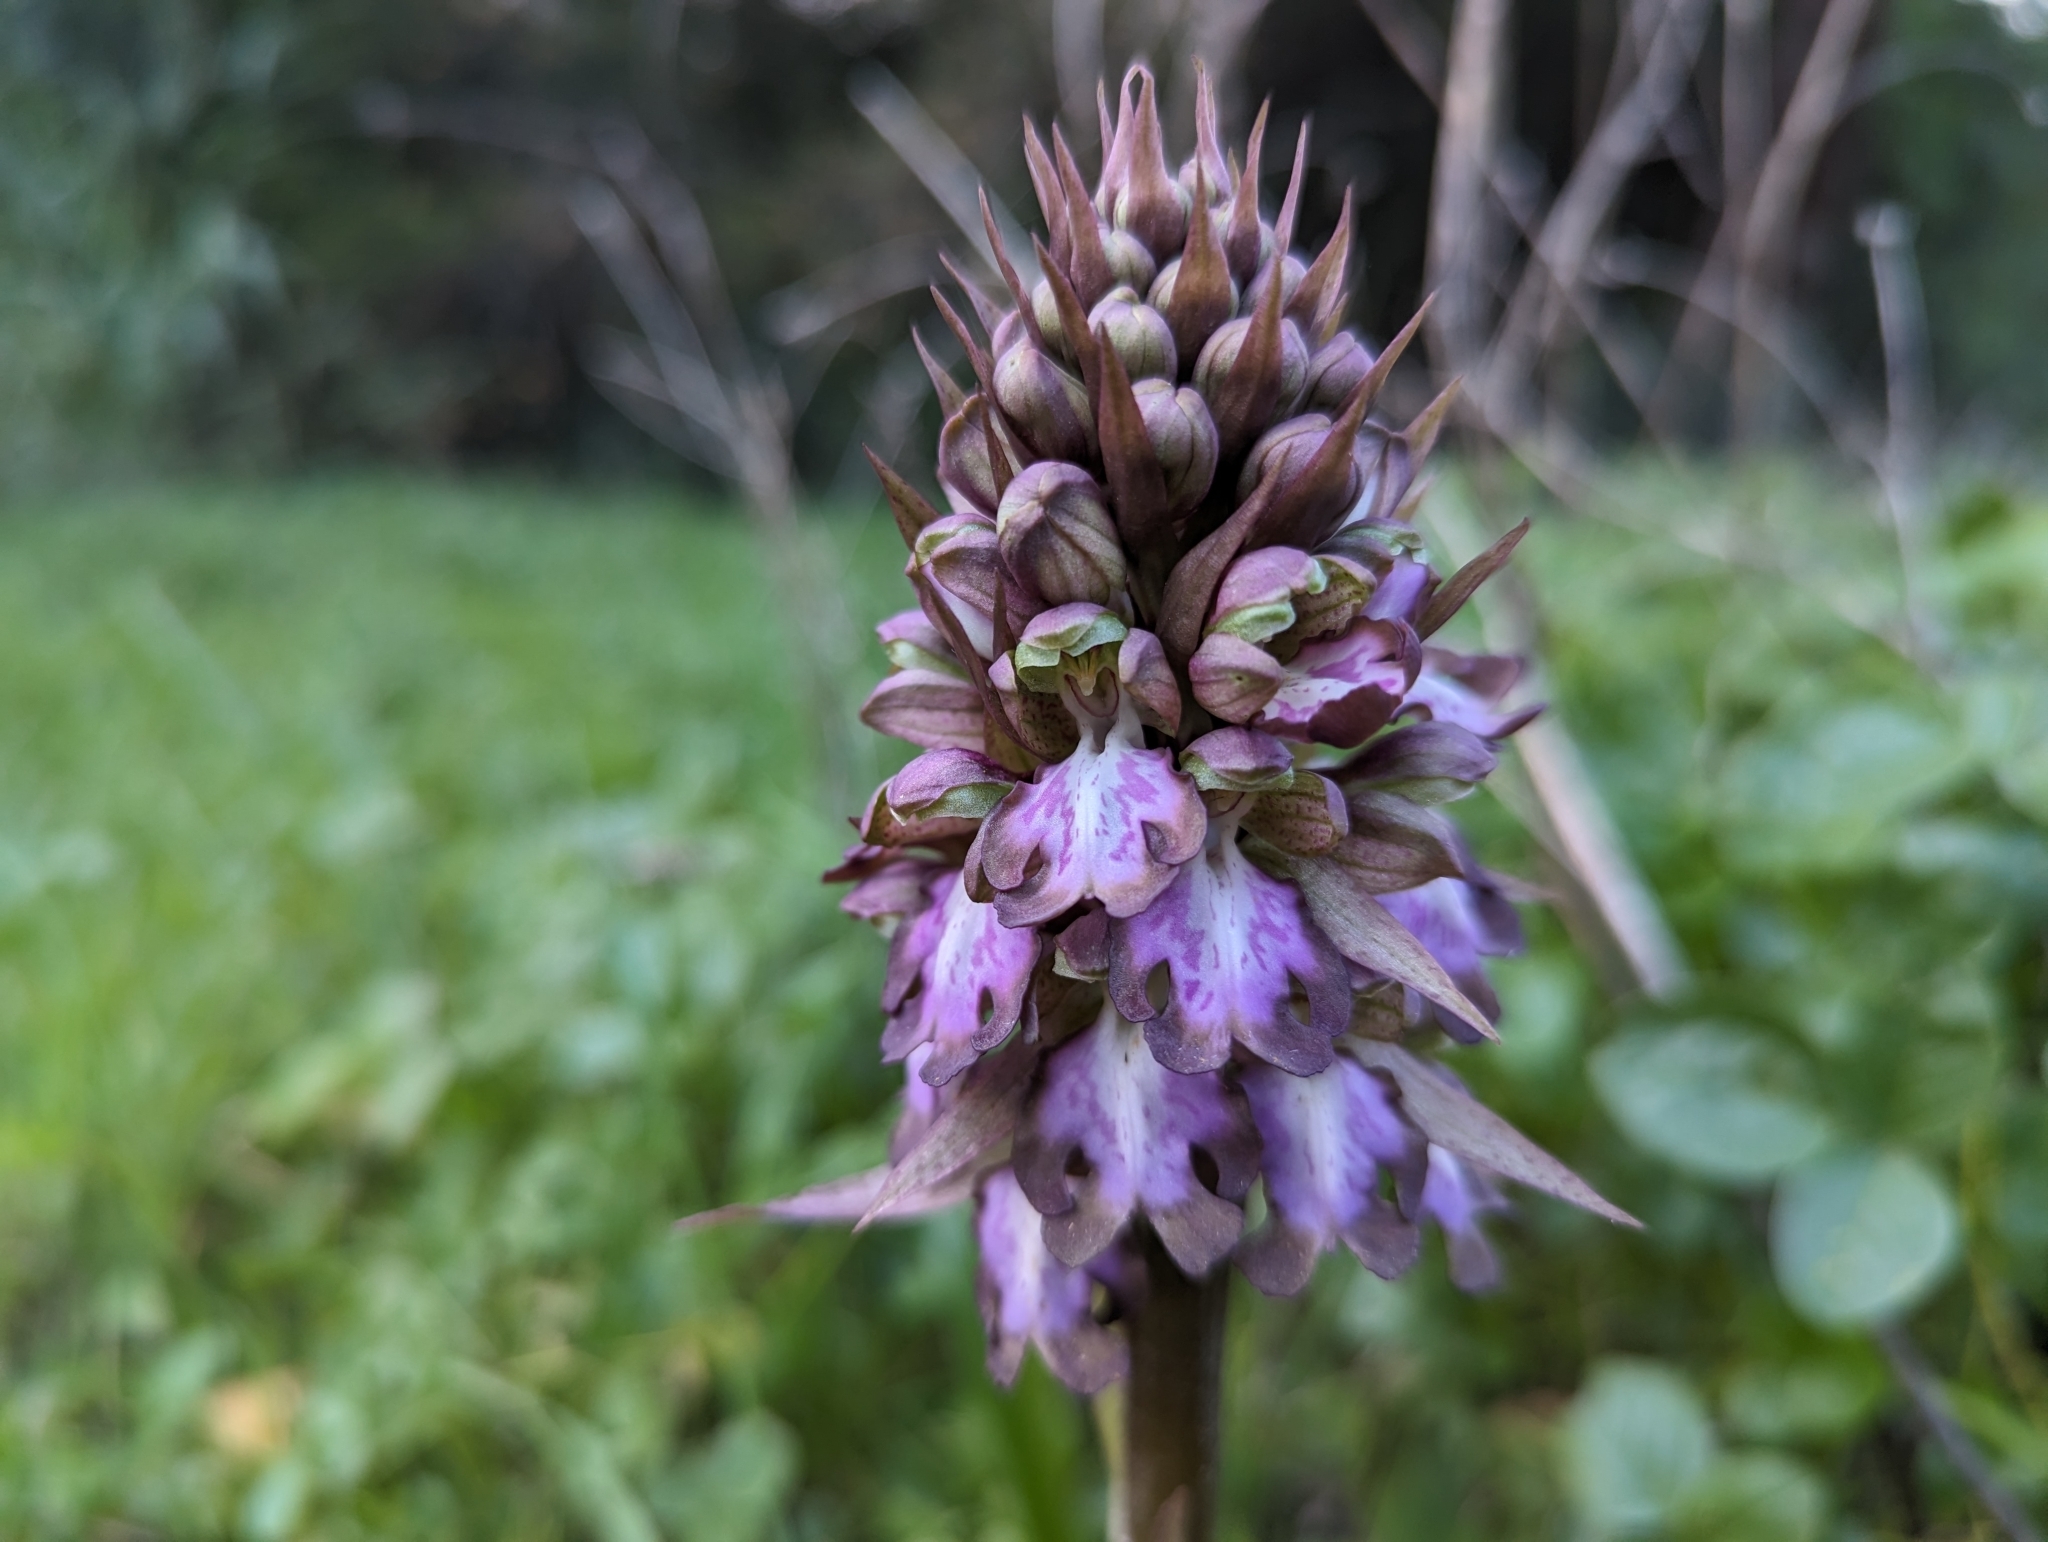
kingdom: Plantae
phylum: Tracheophyta
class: Liliopsida
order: Asparagales
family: Orchidaceae
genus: Himantoglossum
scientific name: Himantoglossum robertianum
